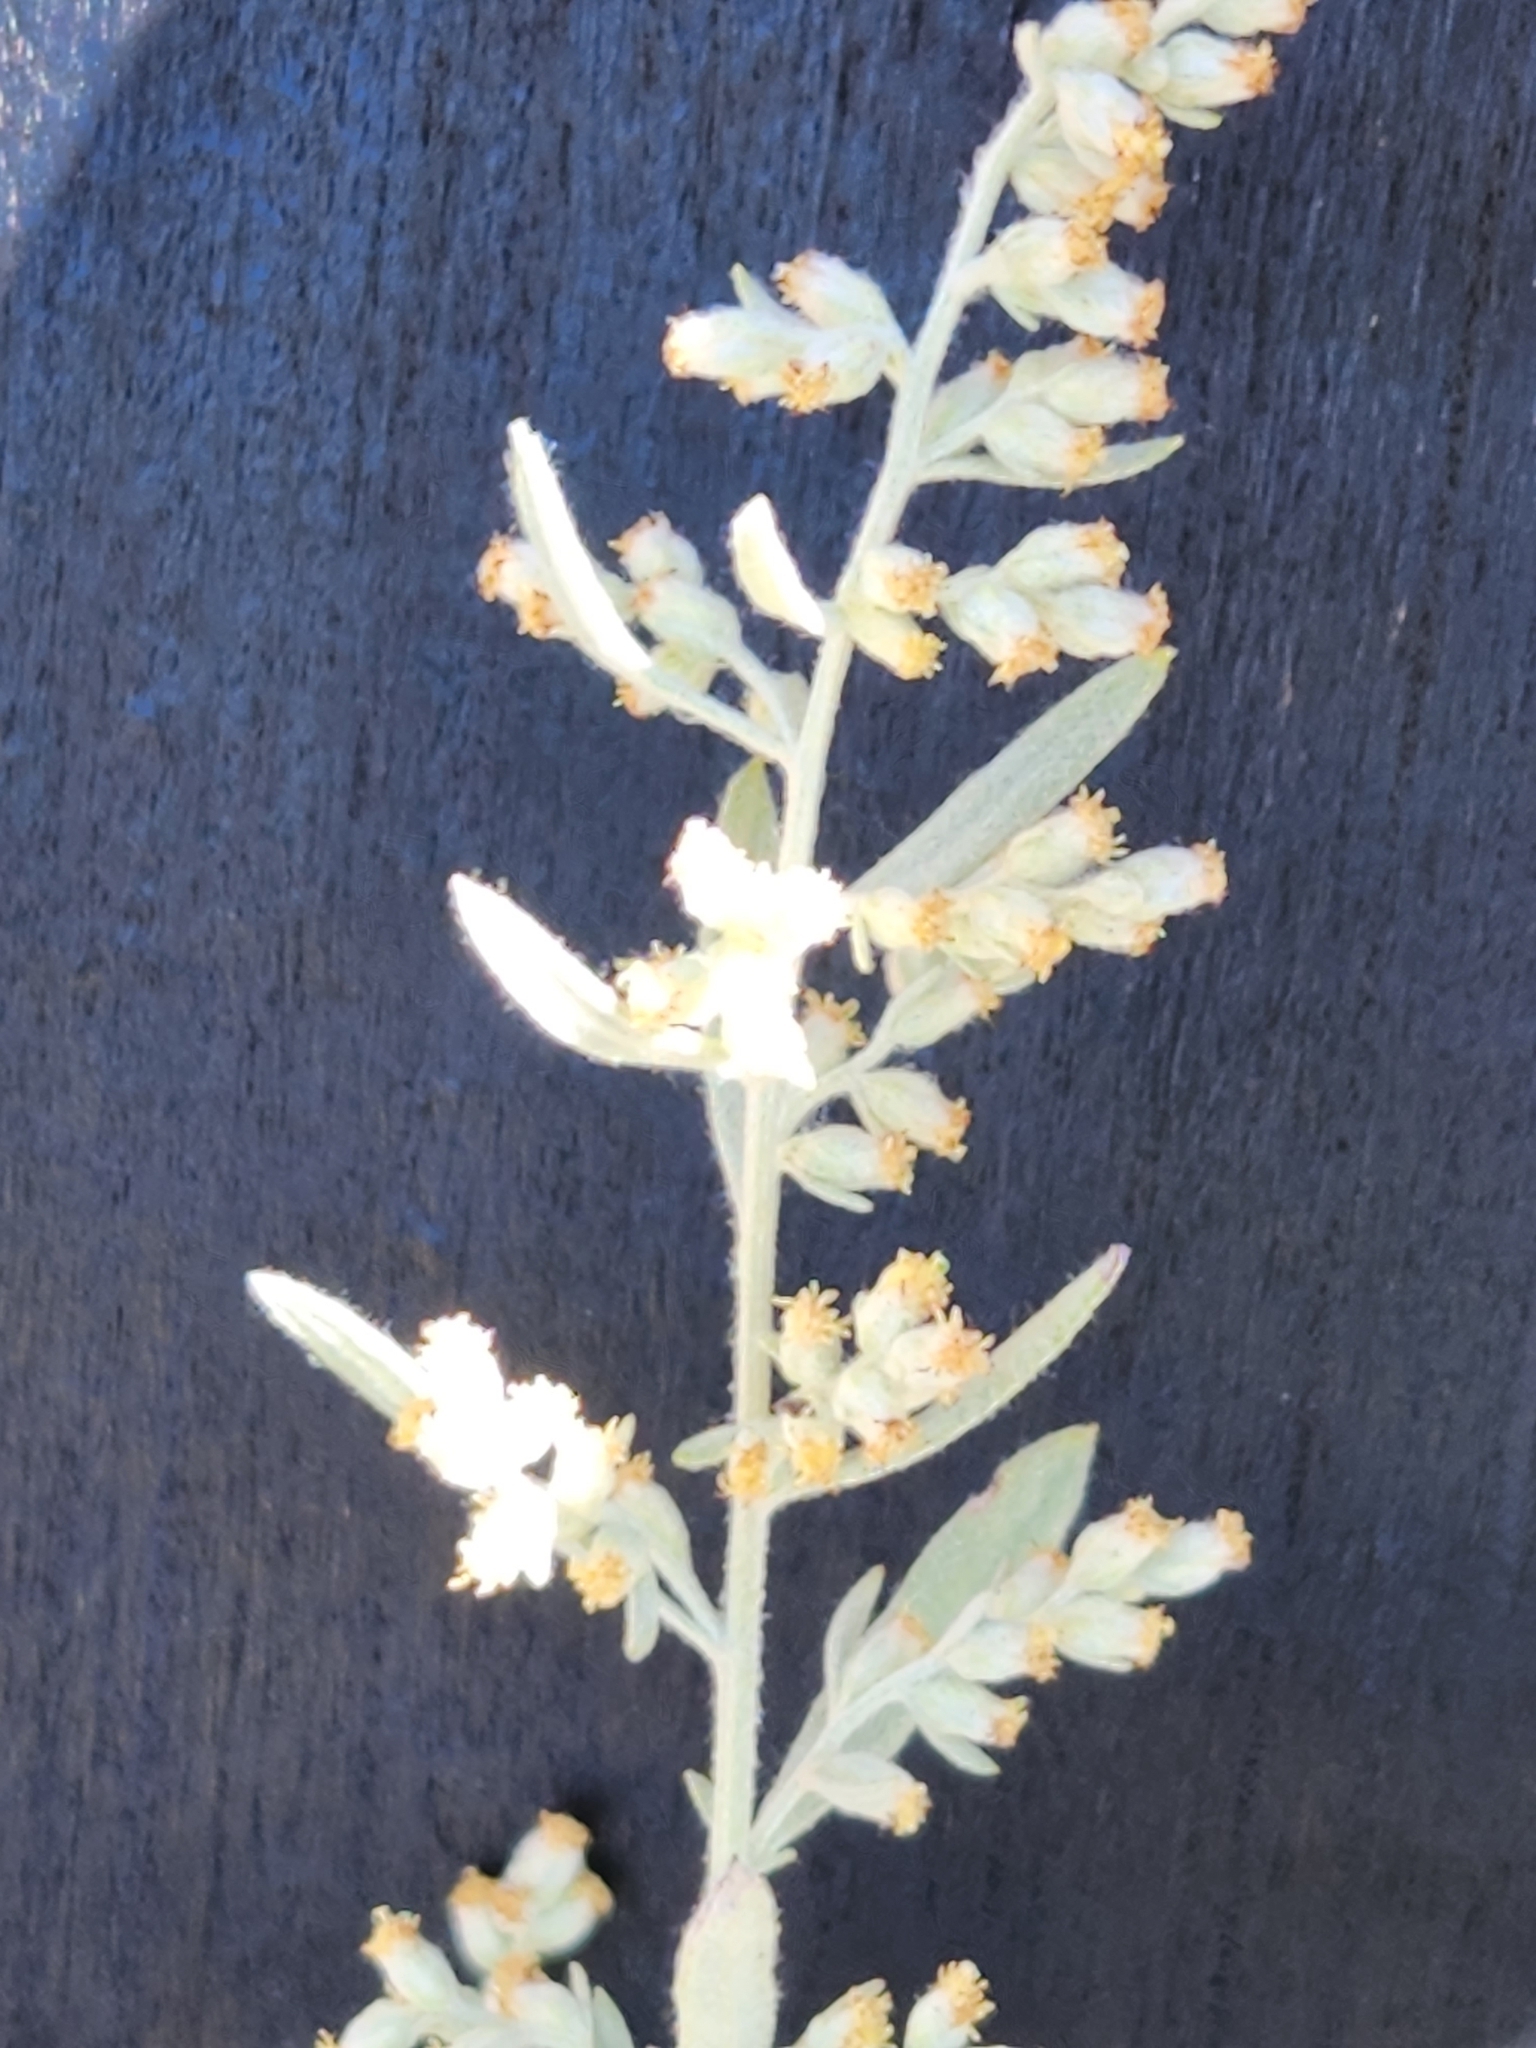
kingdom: Plantae
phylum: Tracheophyta
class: Magnoliopsida
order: Asterales
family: Asteraceae
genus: Artemisia
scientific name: Artemisia ludoviciana
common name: Western mugwort
